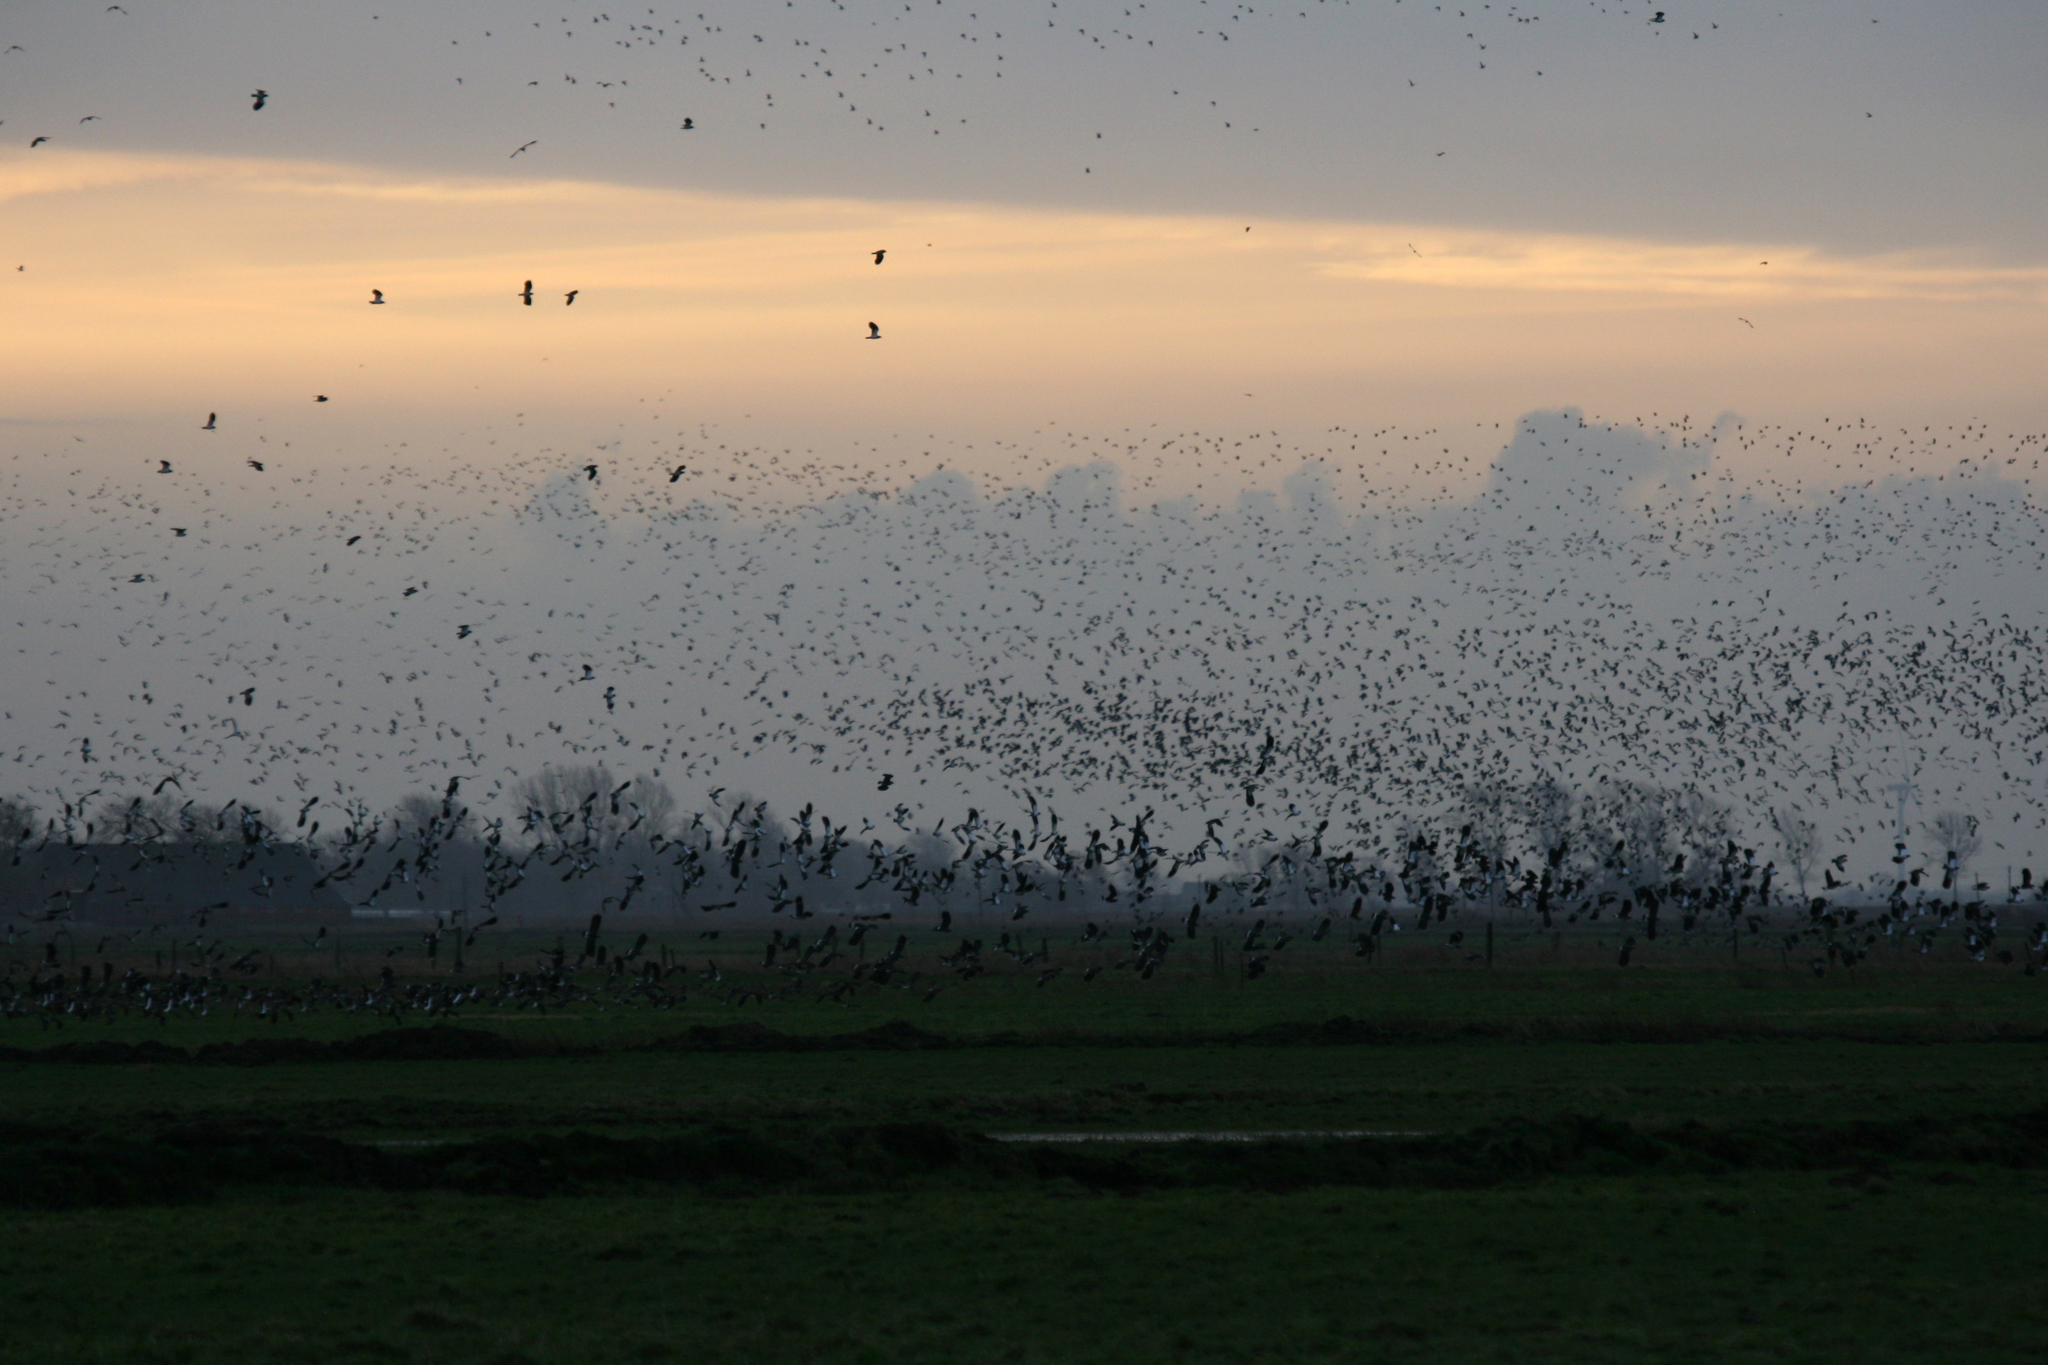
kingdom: Animalia
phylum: Chordata
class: Aves
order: Charadriiformes
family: Charadriidae
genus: Vanellus
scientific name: Vanellus vanellus
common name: Northern lapwing
